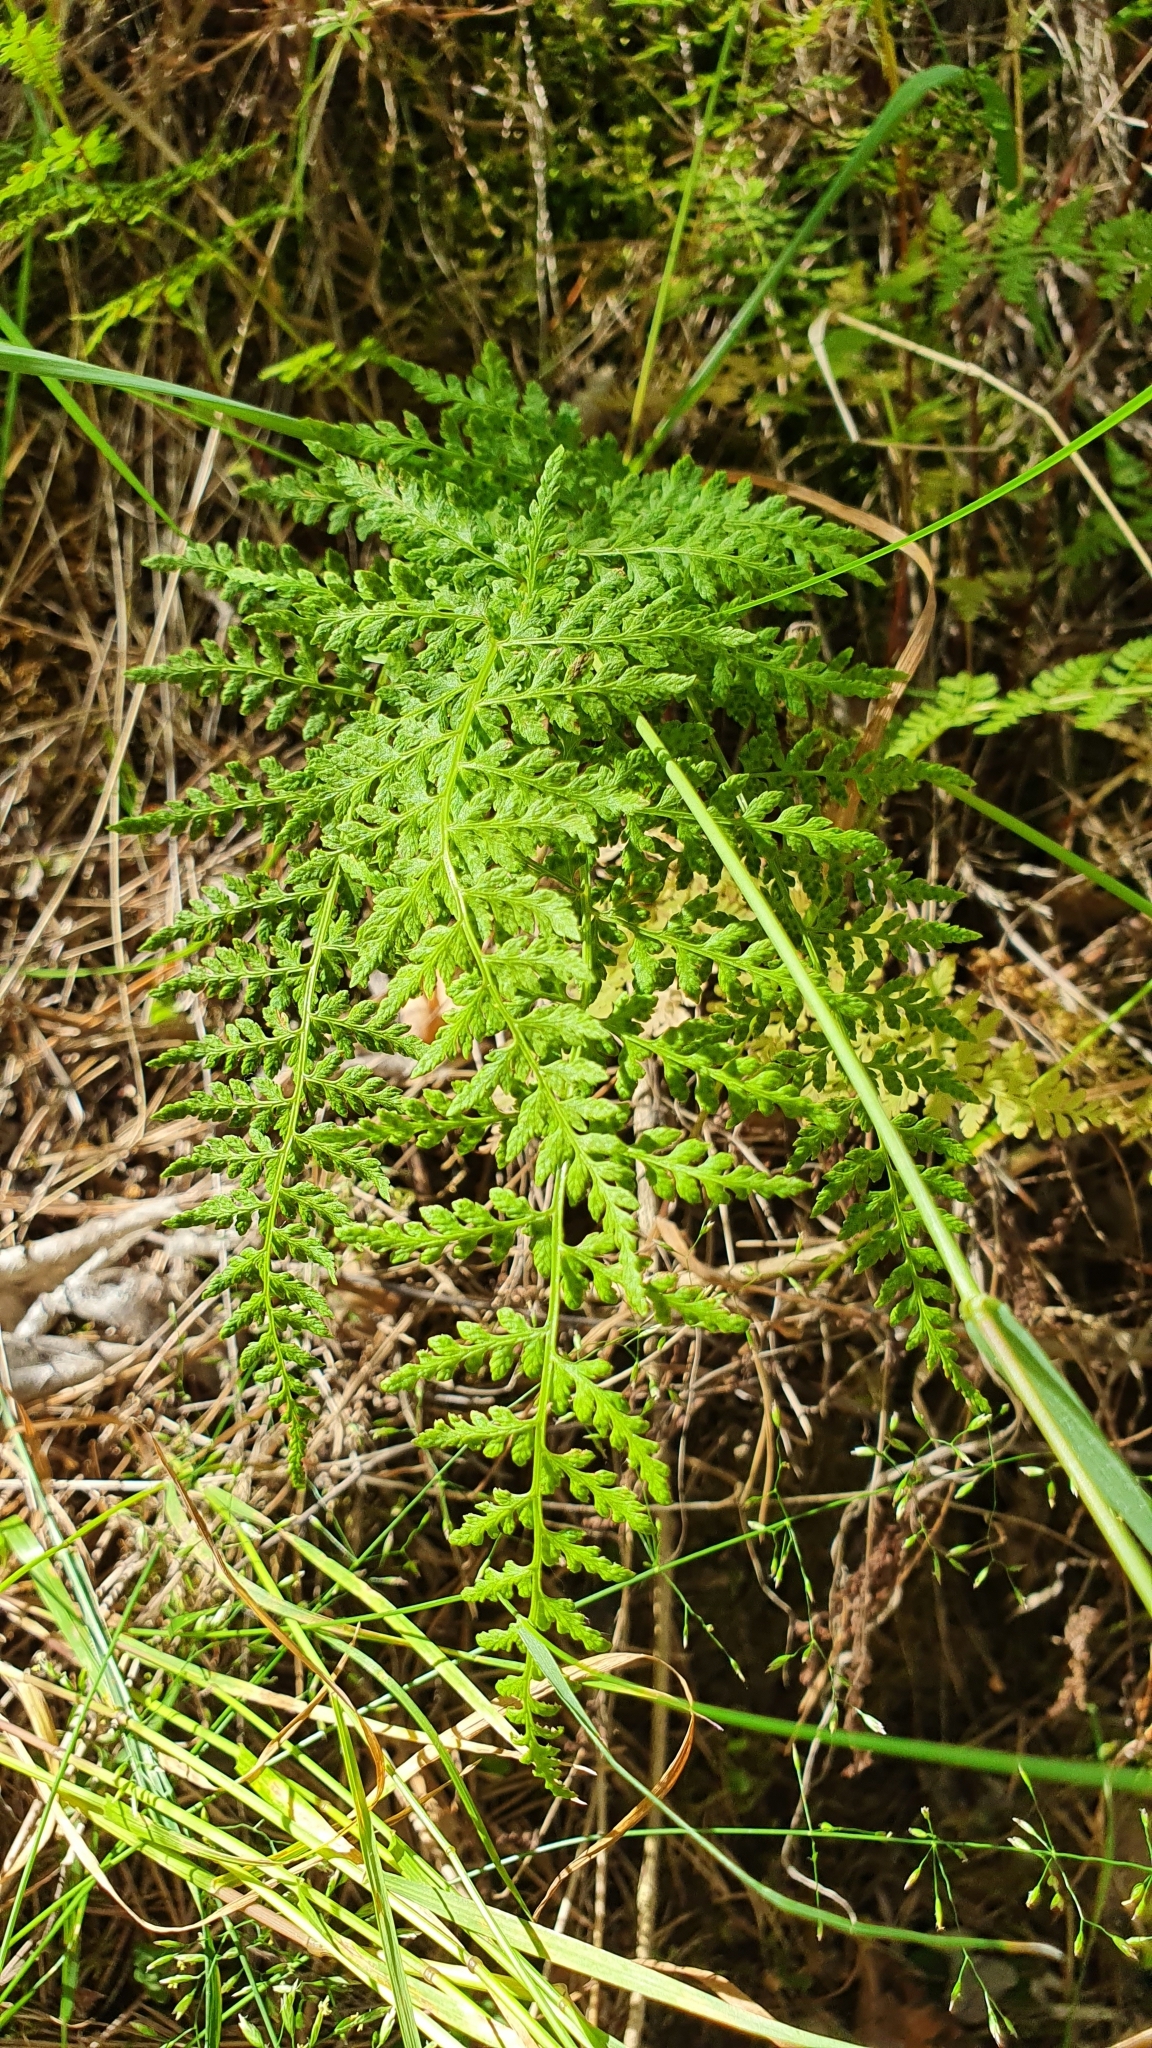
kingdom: Plantae
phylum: Tracheophyta
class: Polypodiopsida
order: Polypodiales
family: Cystopteridaceae
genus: Cystopteris
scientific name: Cystopteris fragilis
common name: Brittle bladder fern
